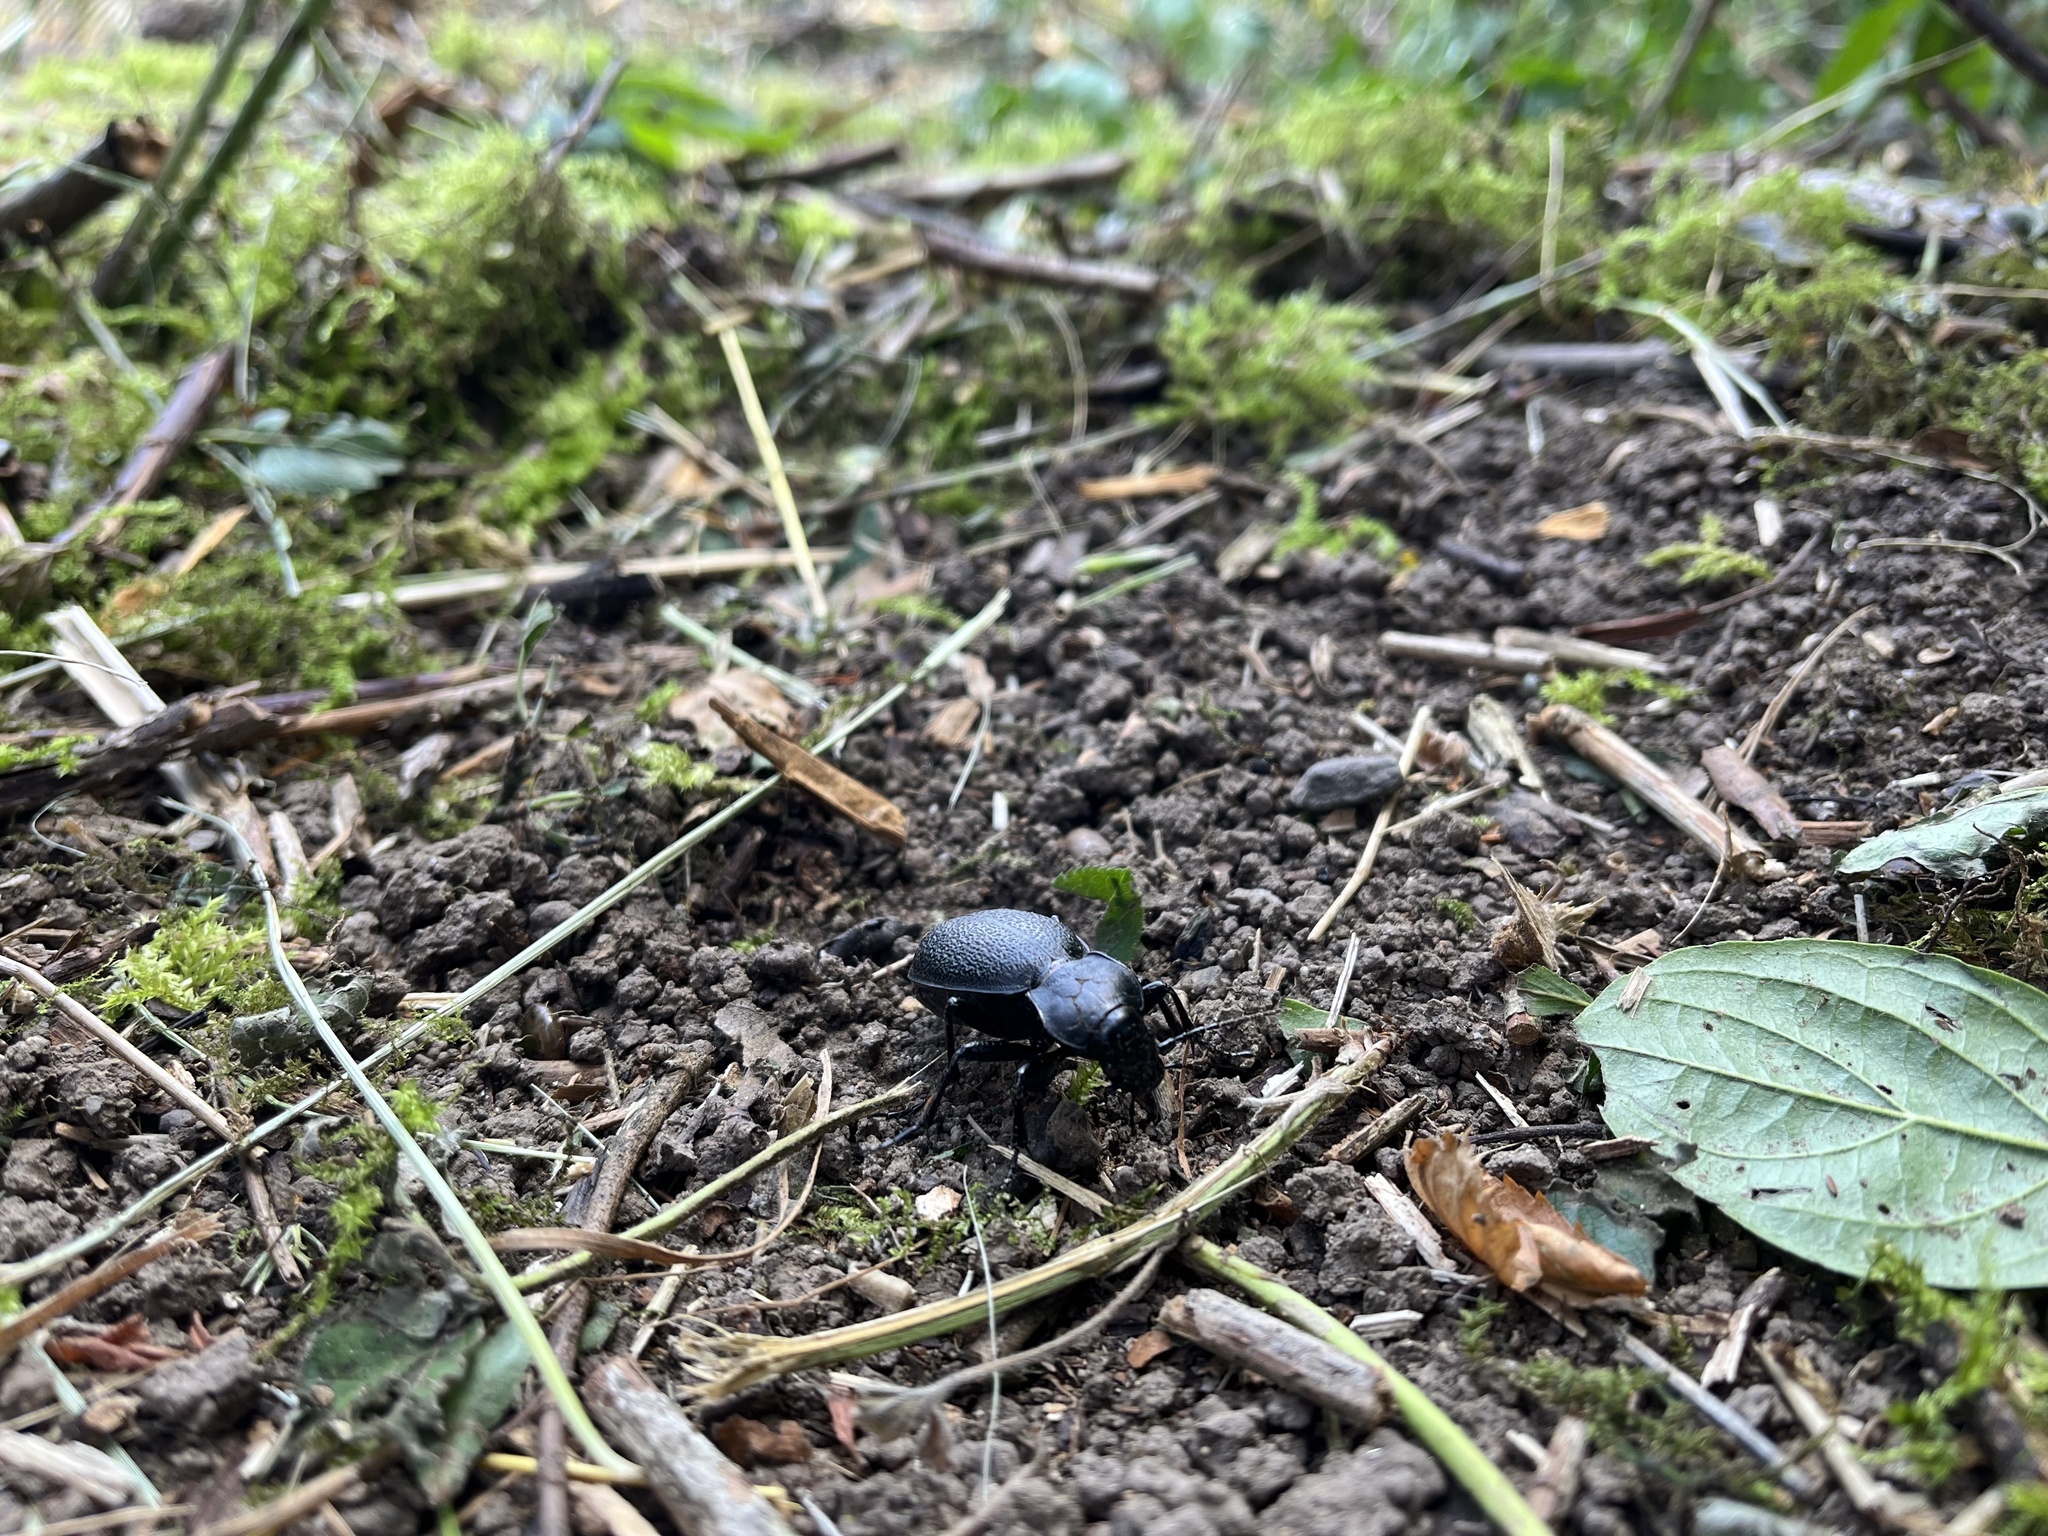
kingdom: Animalia
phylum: Arthropoda
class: Insecta
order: Coleoptera
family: Carabidae
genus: Carabus
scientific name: Carabus coriaceus
